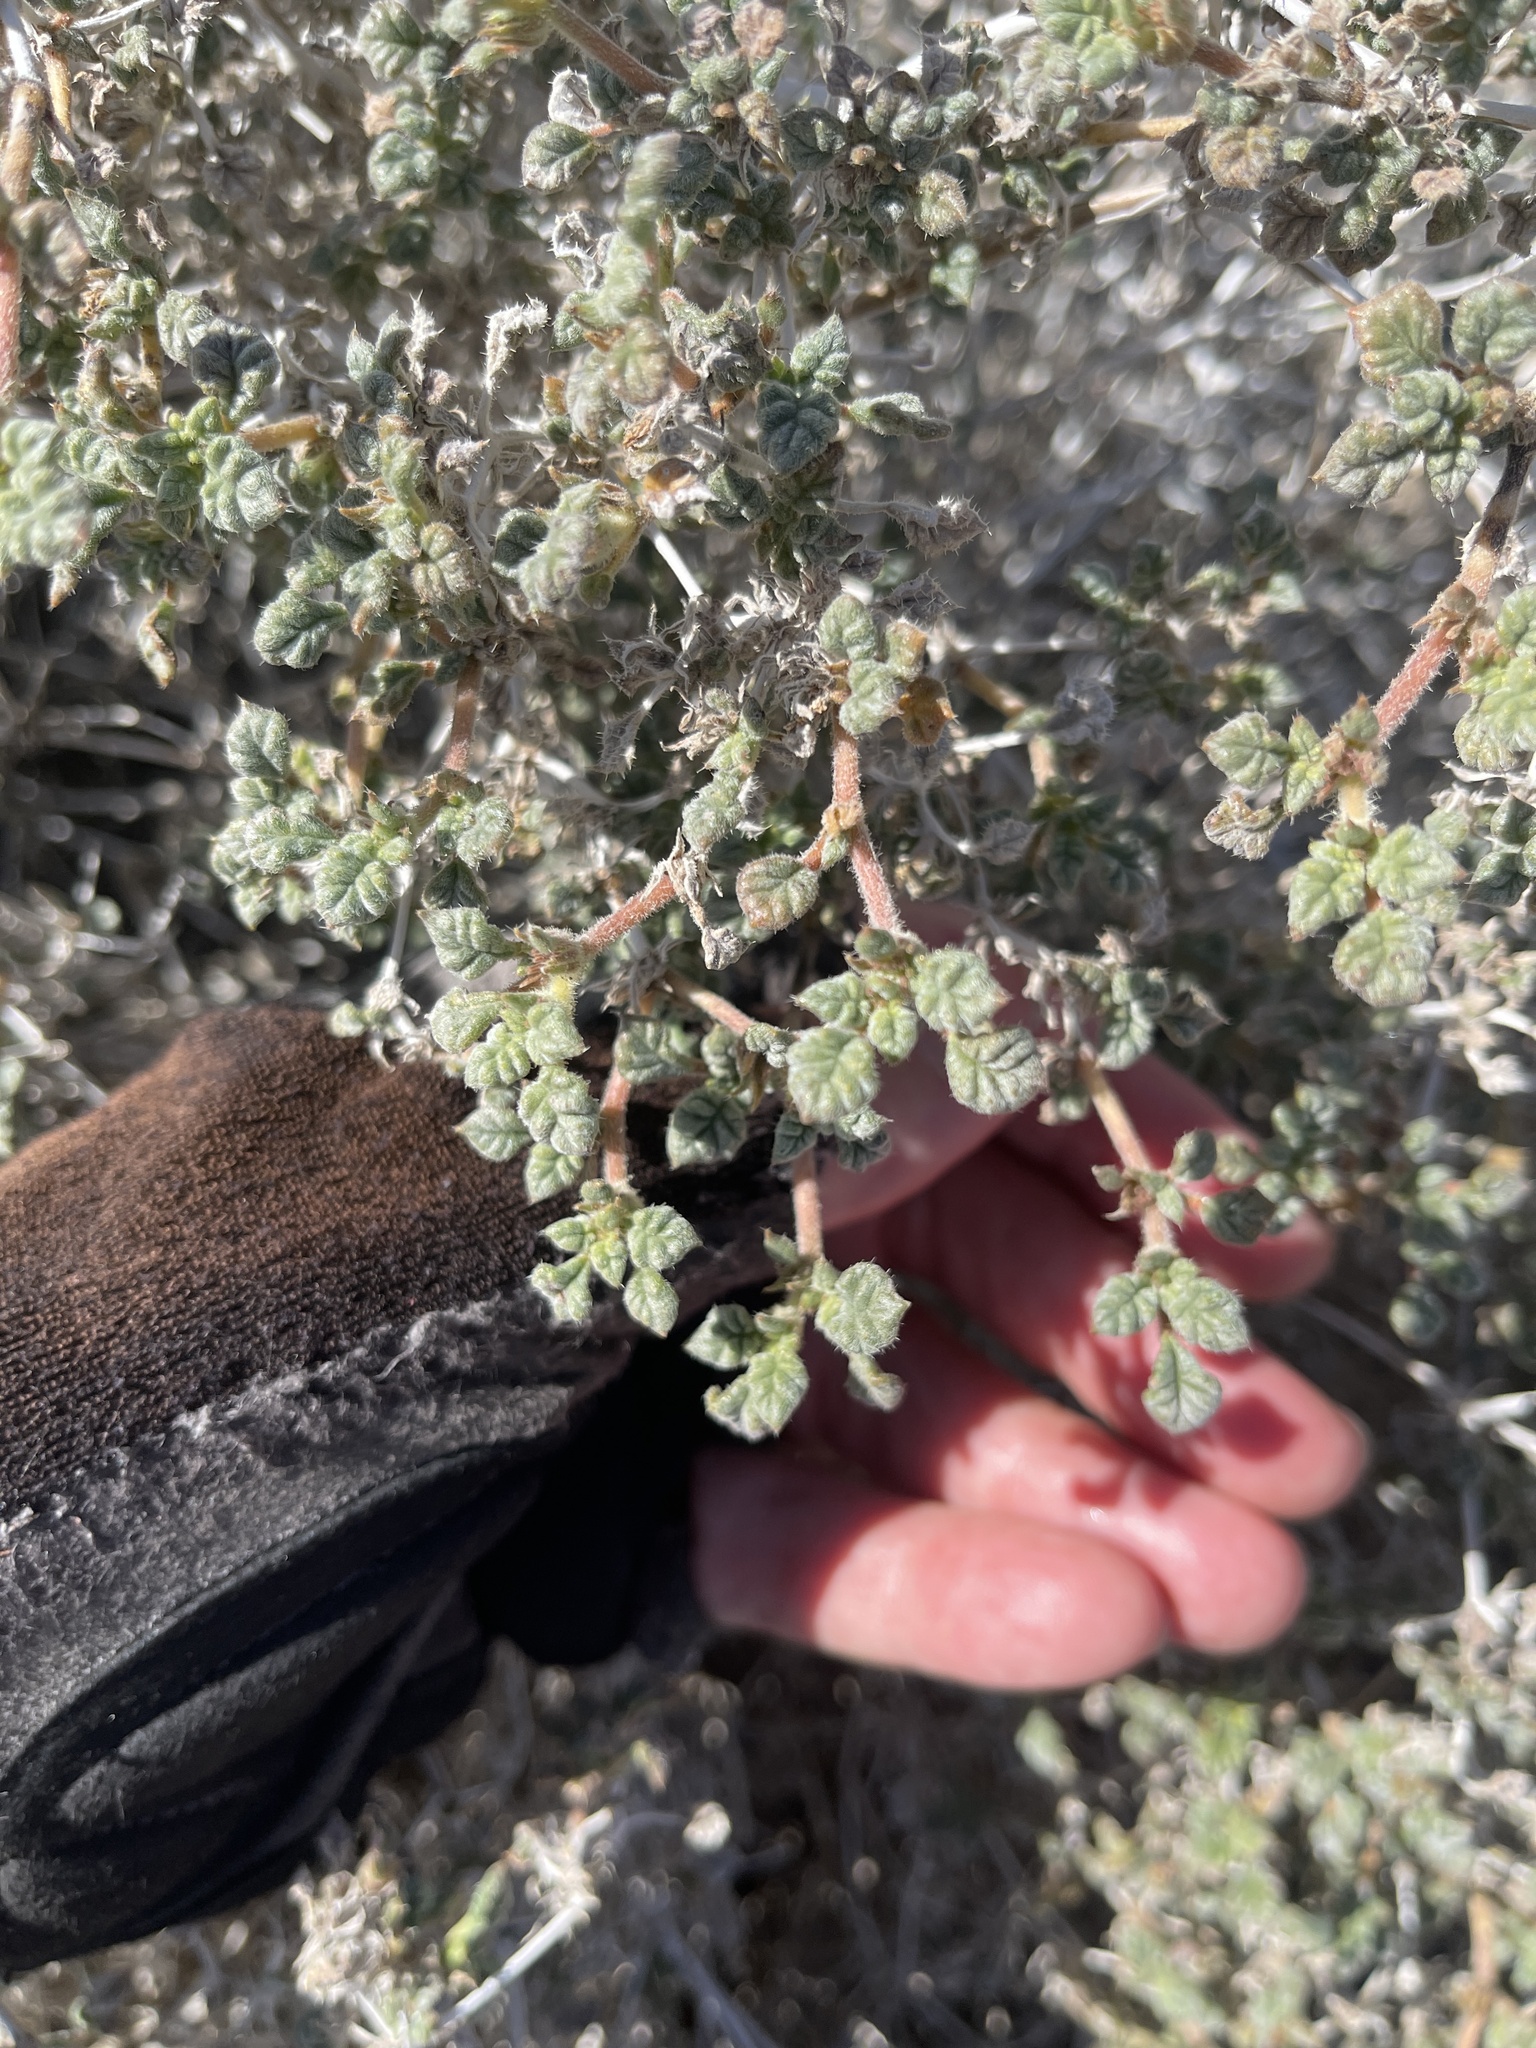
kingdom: Plantae
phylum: Tracheophyta
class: Magnoliopsida
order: Boraginales
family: Ehretiaceae
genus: Tiquilia
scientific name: Tiquilia palmeri
